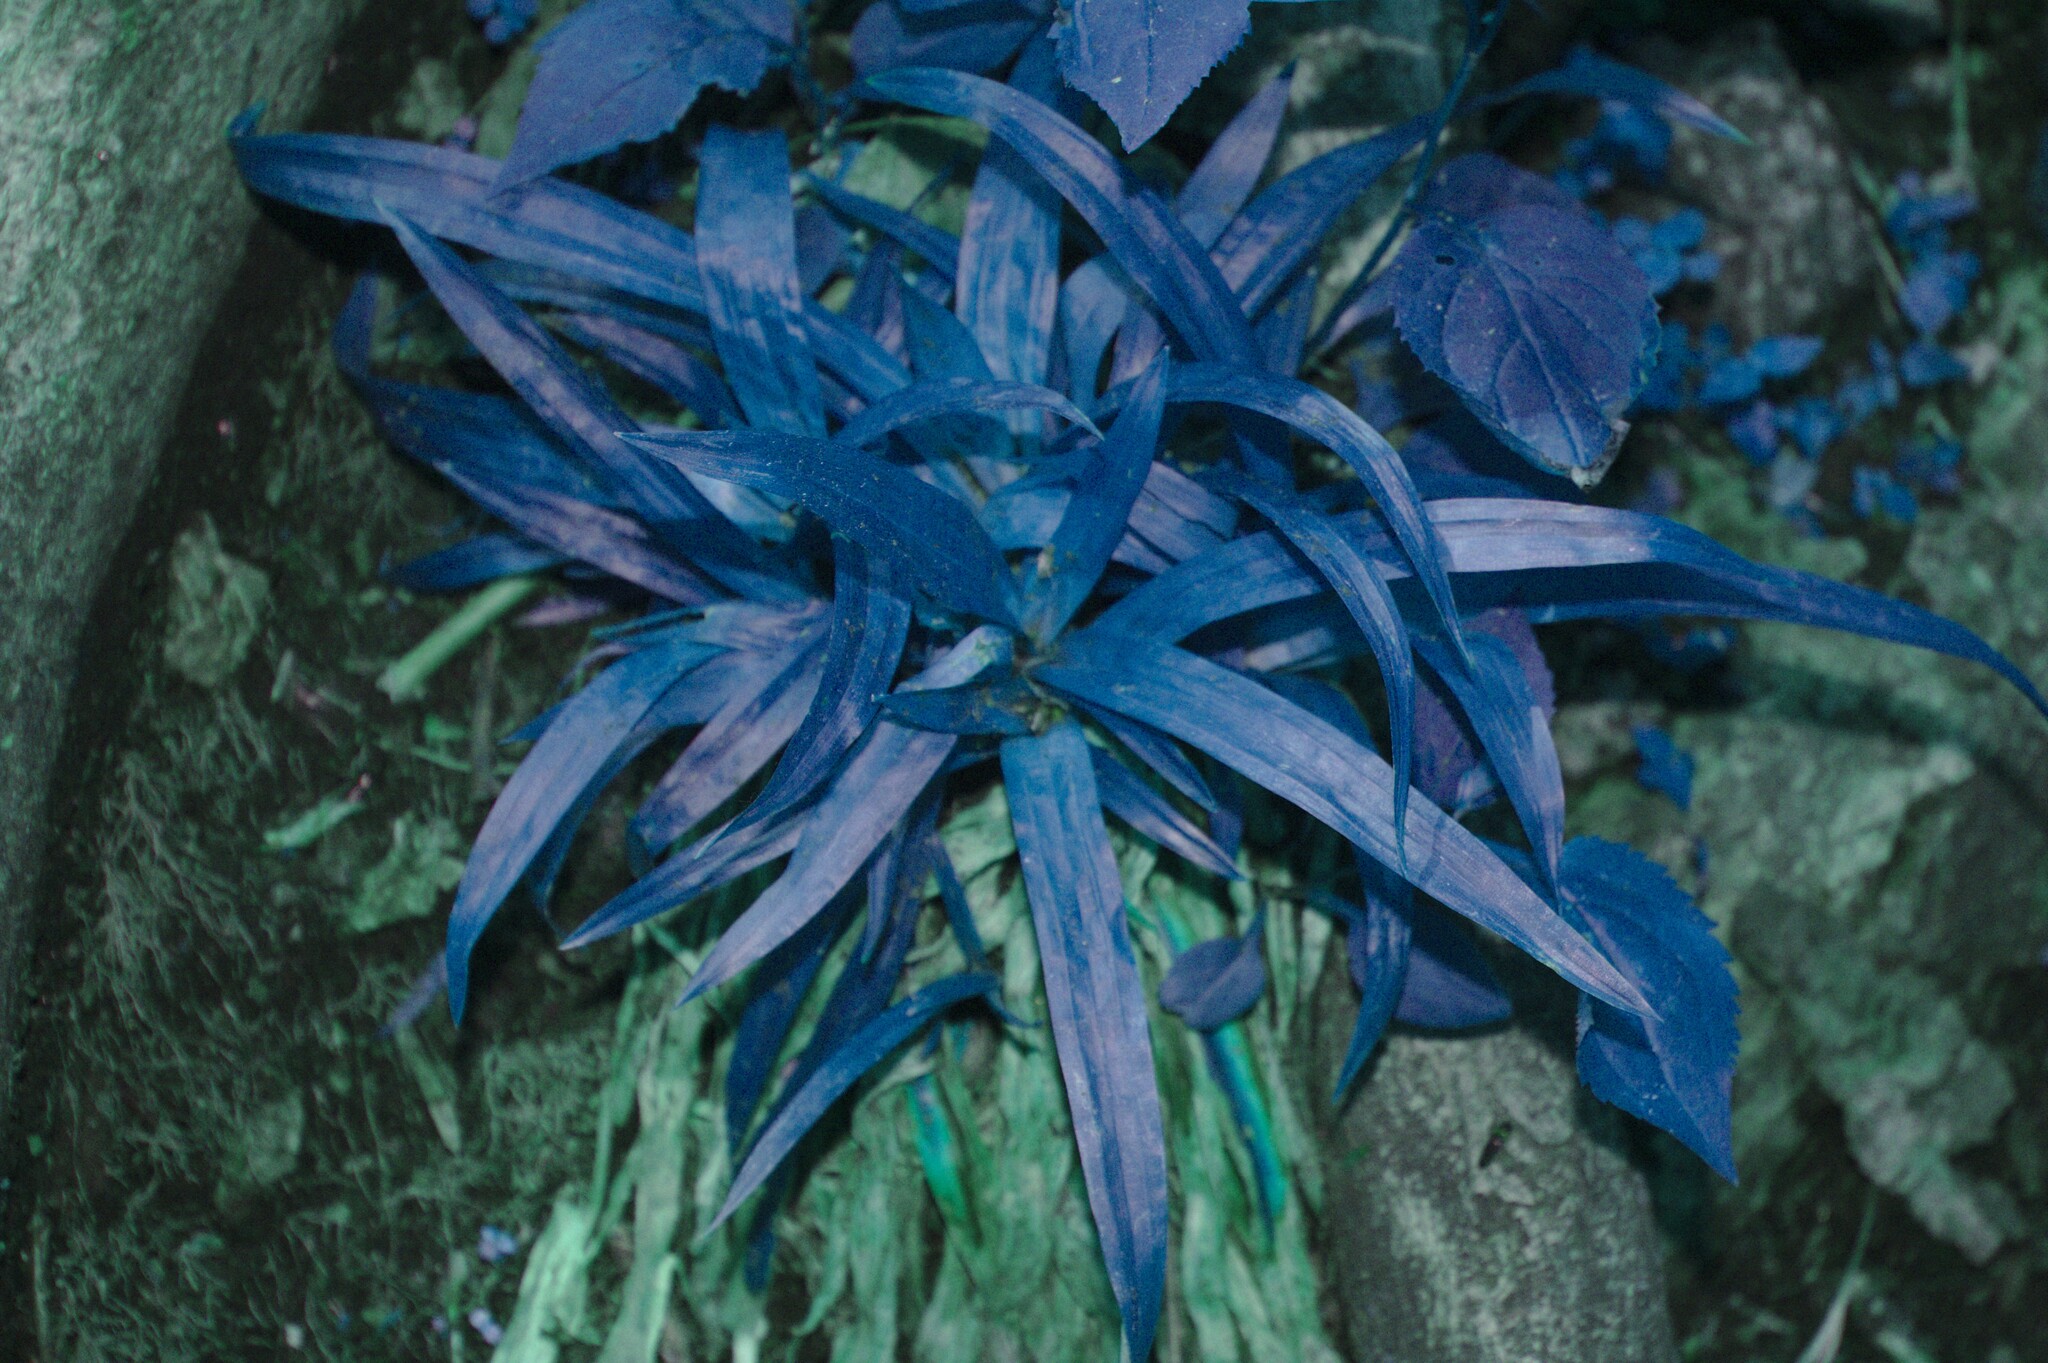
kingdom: Plantae
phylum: Tracheophyta
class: Liliopsida
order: Poales
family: Cyperaceae
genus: Carex
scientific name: Carex albursina
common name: Blunt-scale wood sedge
